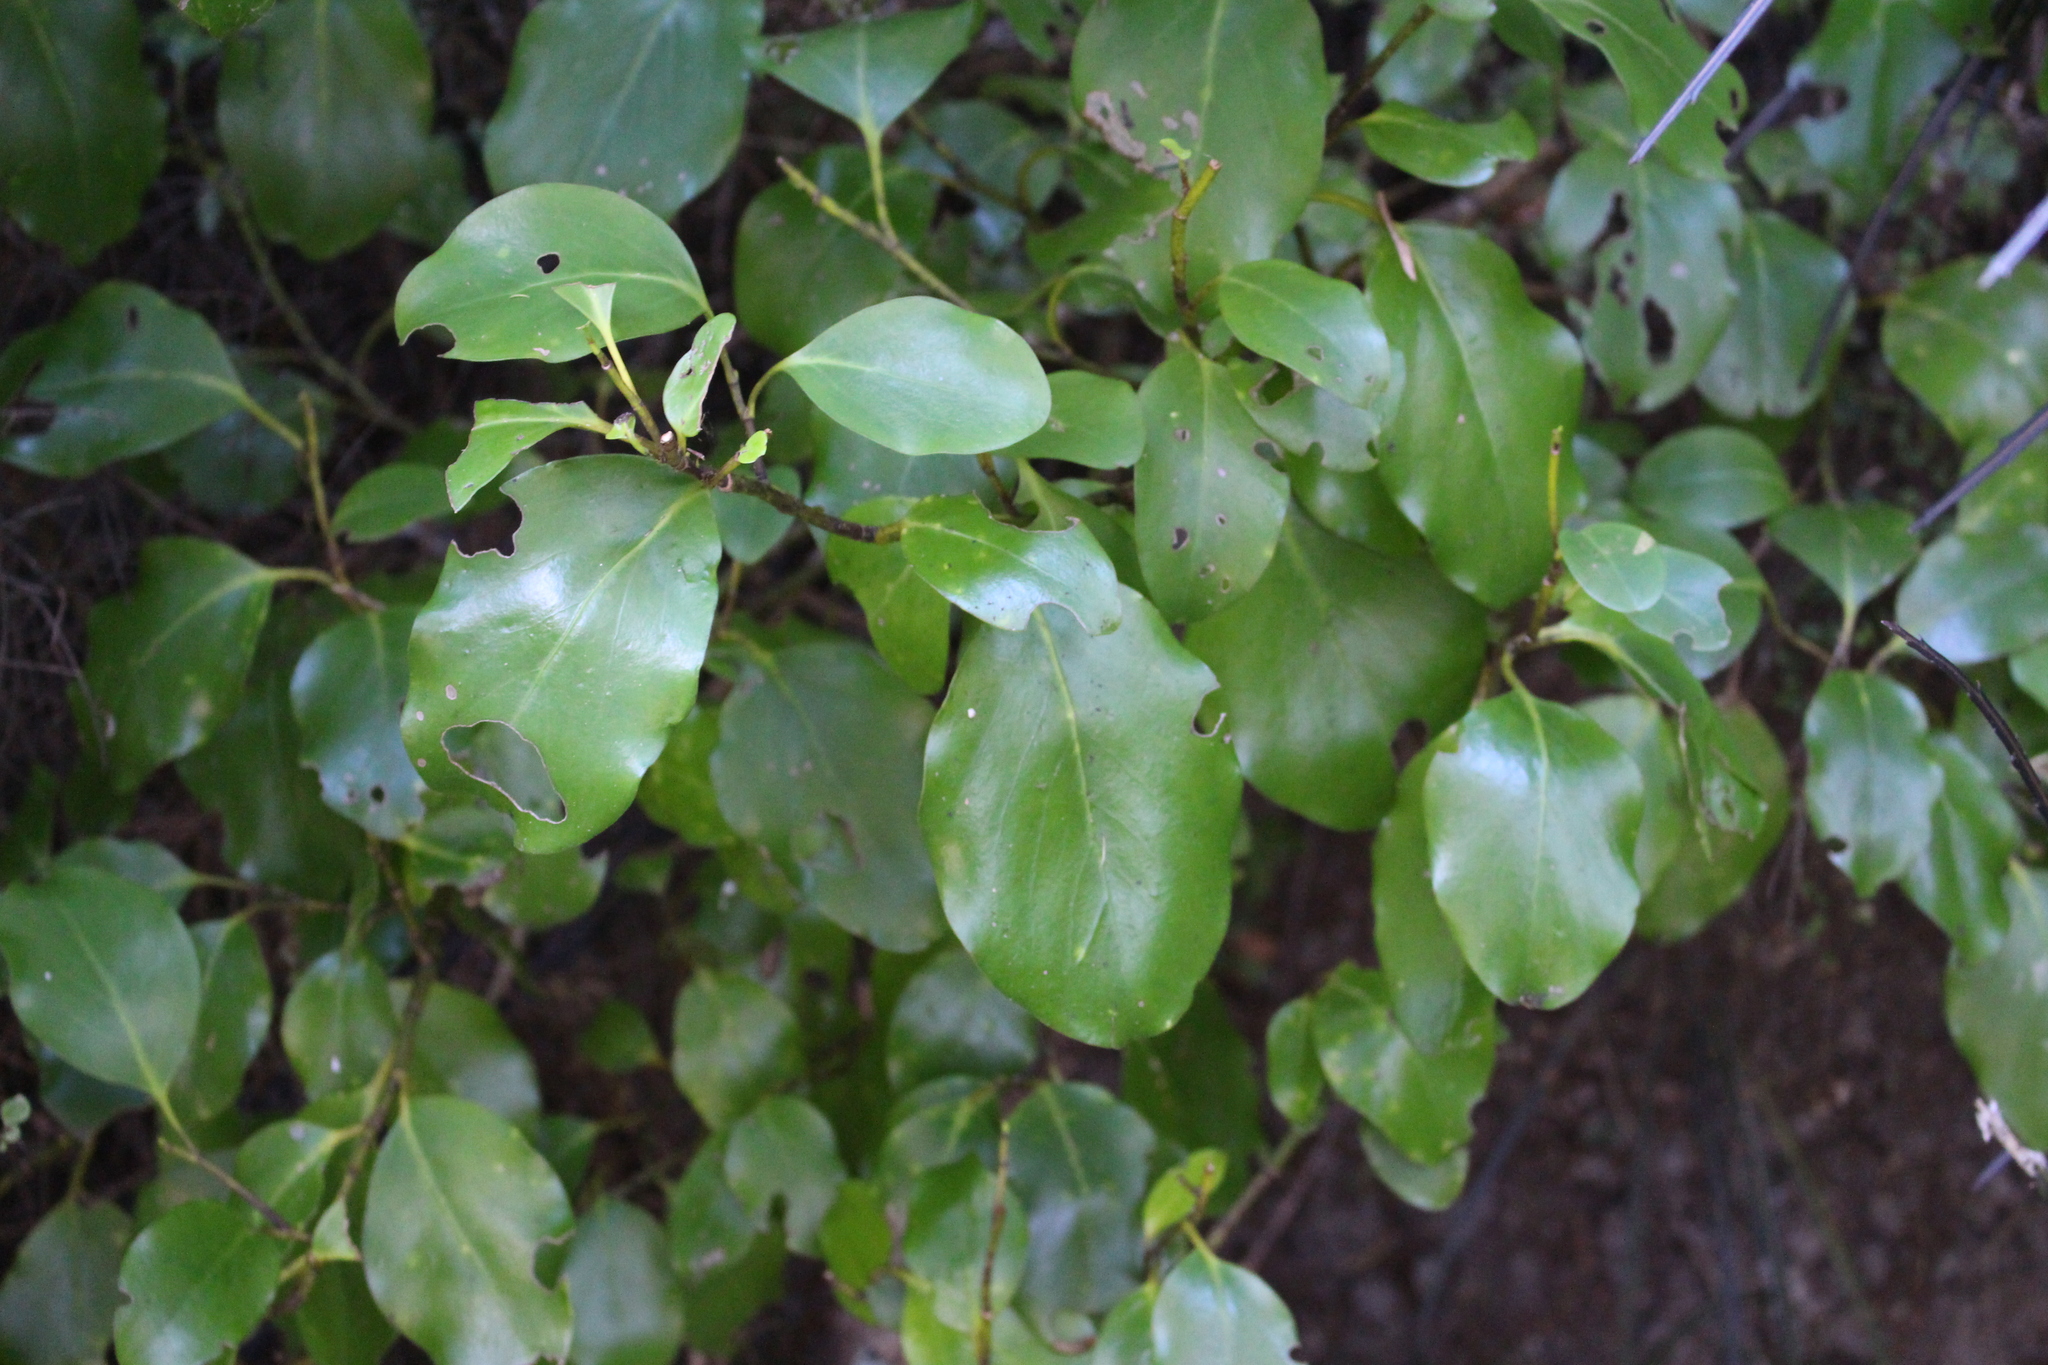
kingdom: Plantae
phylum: Tracheophyta
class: Magnoliopsida
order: Apiales
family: Griseliniaceae
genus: Griselinia
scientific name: Griselinia littoralis
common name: New zealand broadleaf
